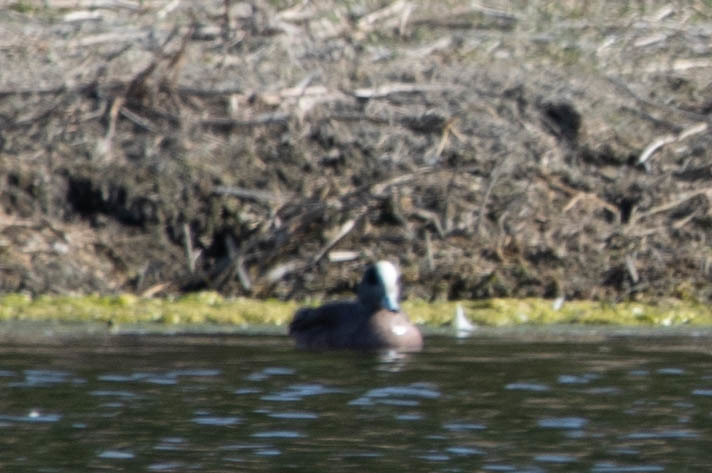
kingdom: Animalia
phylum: Chordata
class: Aves
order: Anseriformes
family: Anatidae
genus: Mareca
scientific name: Mareca americana
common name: American wigeon
